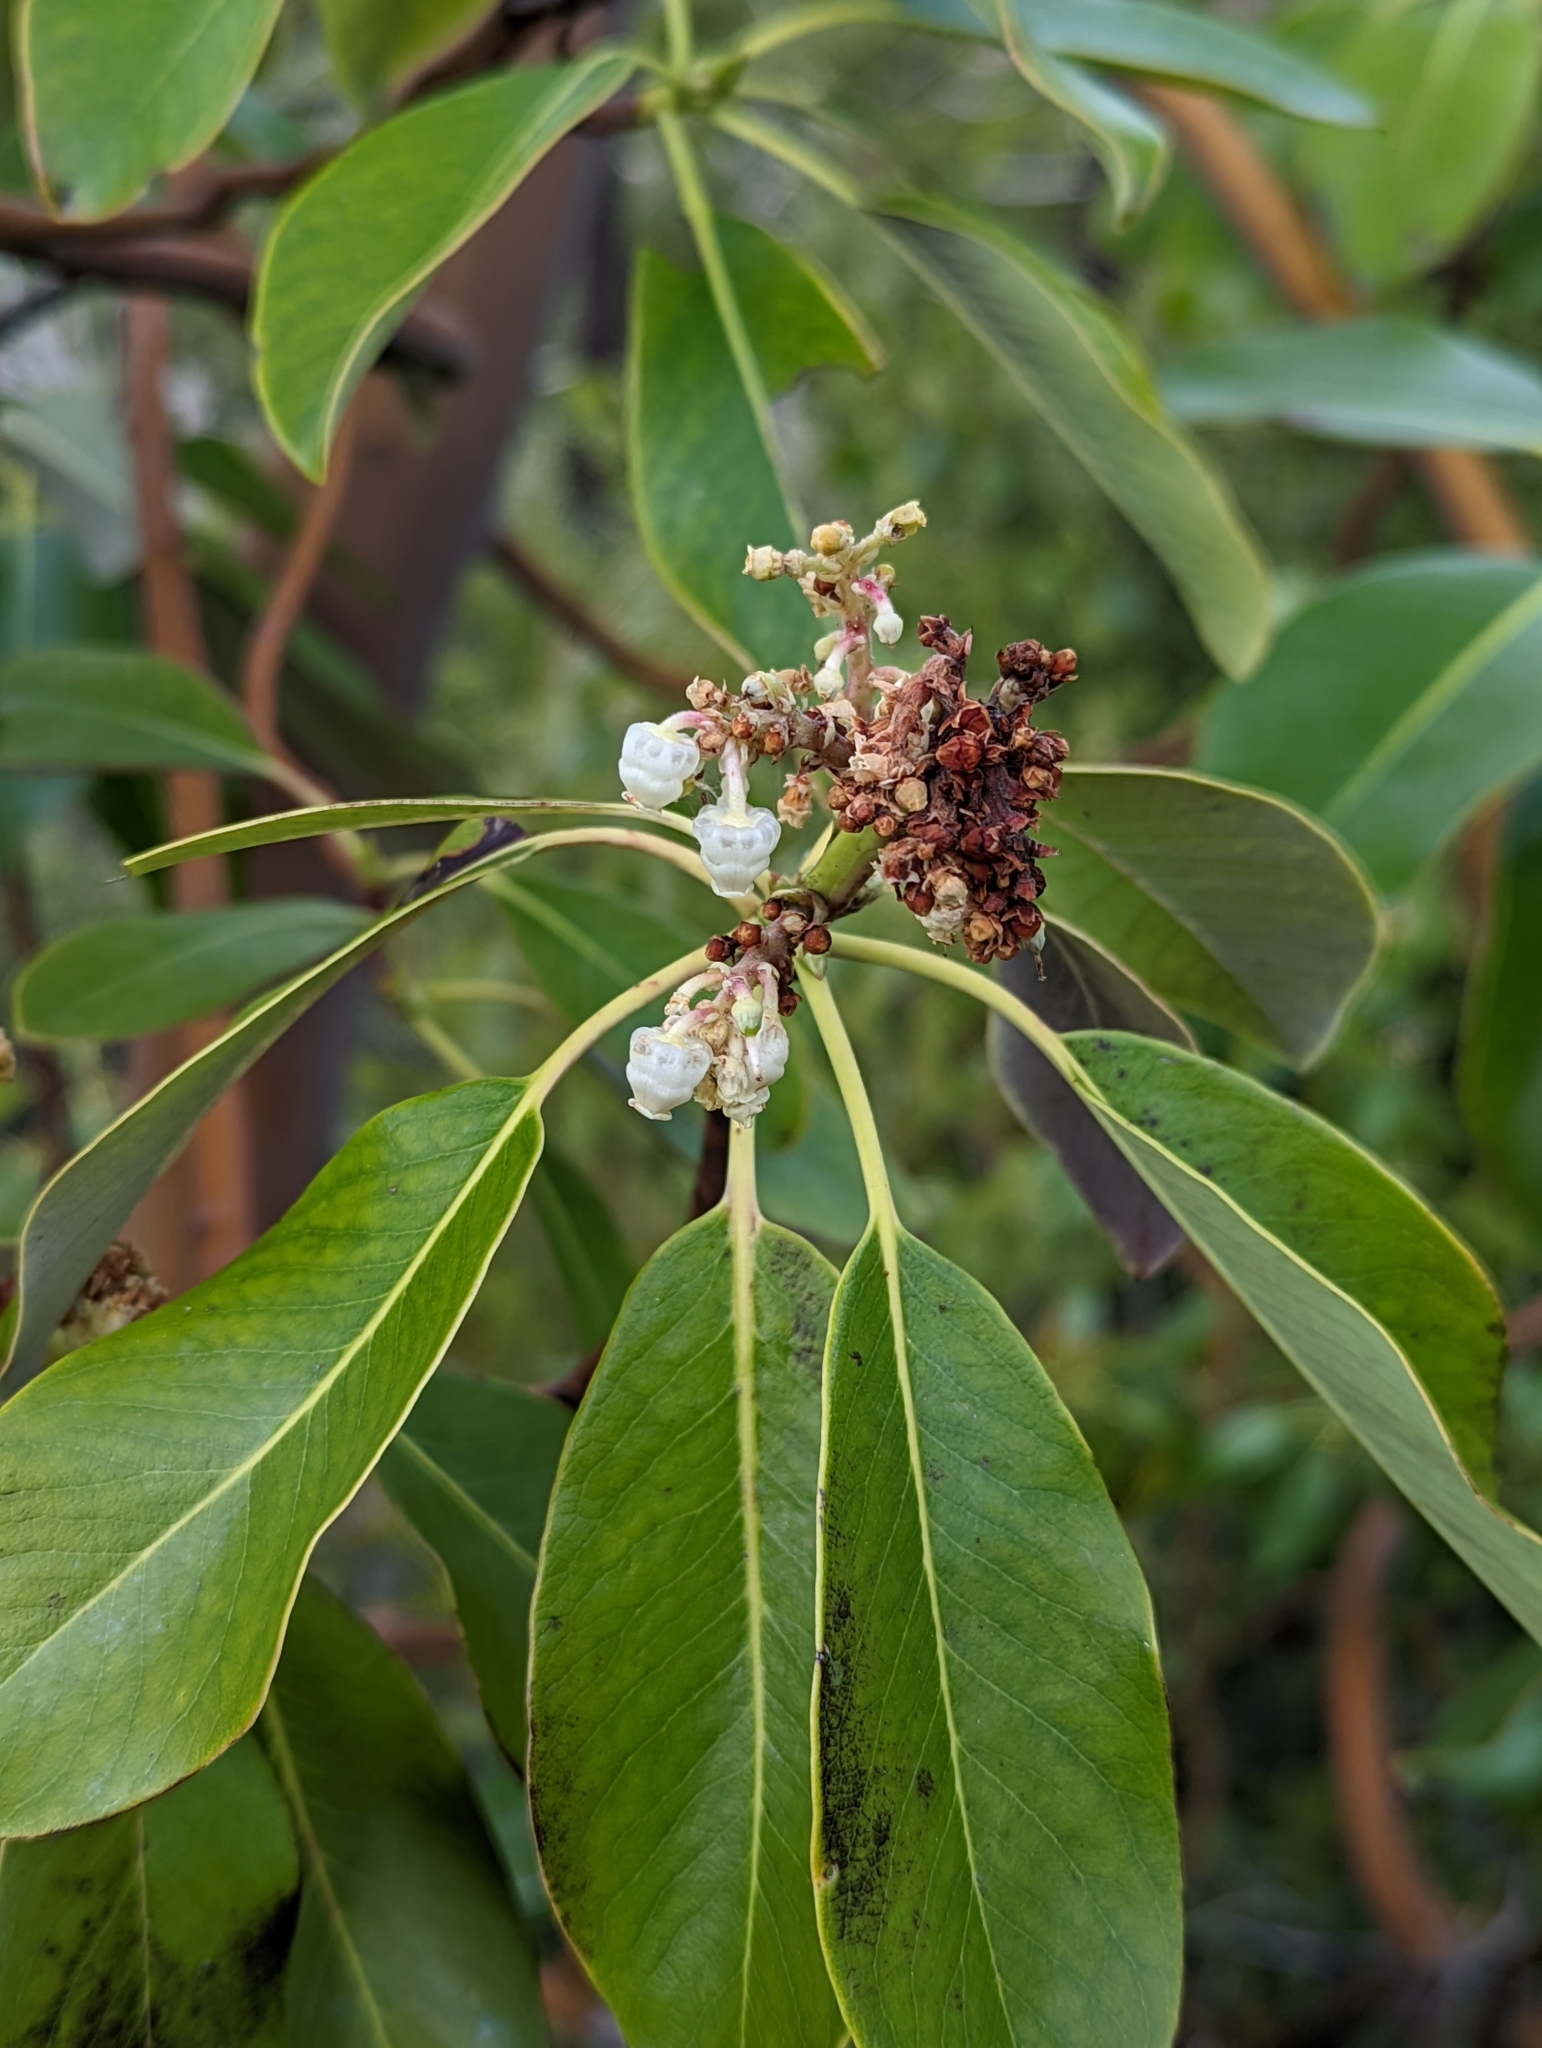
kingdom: Plantae
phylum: Tracheophyta
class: Magnoliopsida
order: Ericales
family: Ericaceae
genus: Arbutus
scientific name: Arbutus menziesii
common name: Pacific madrone
